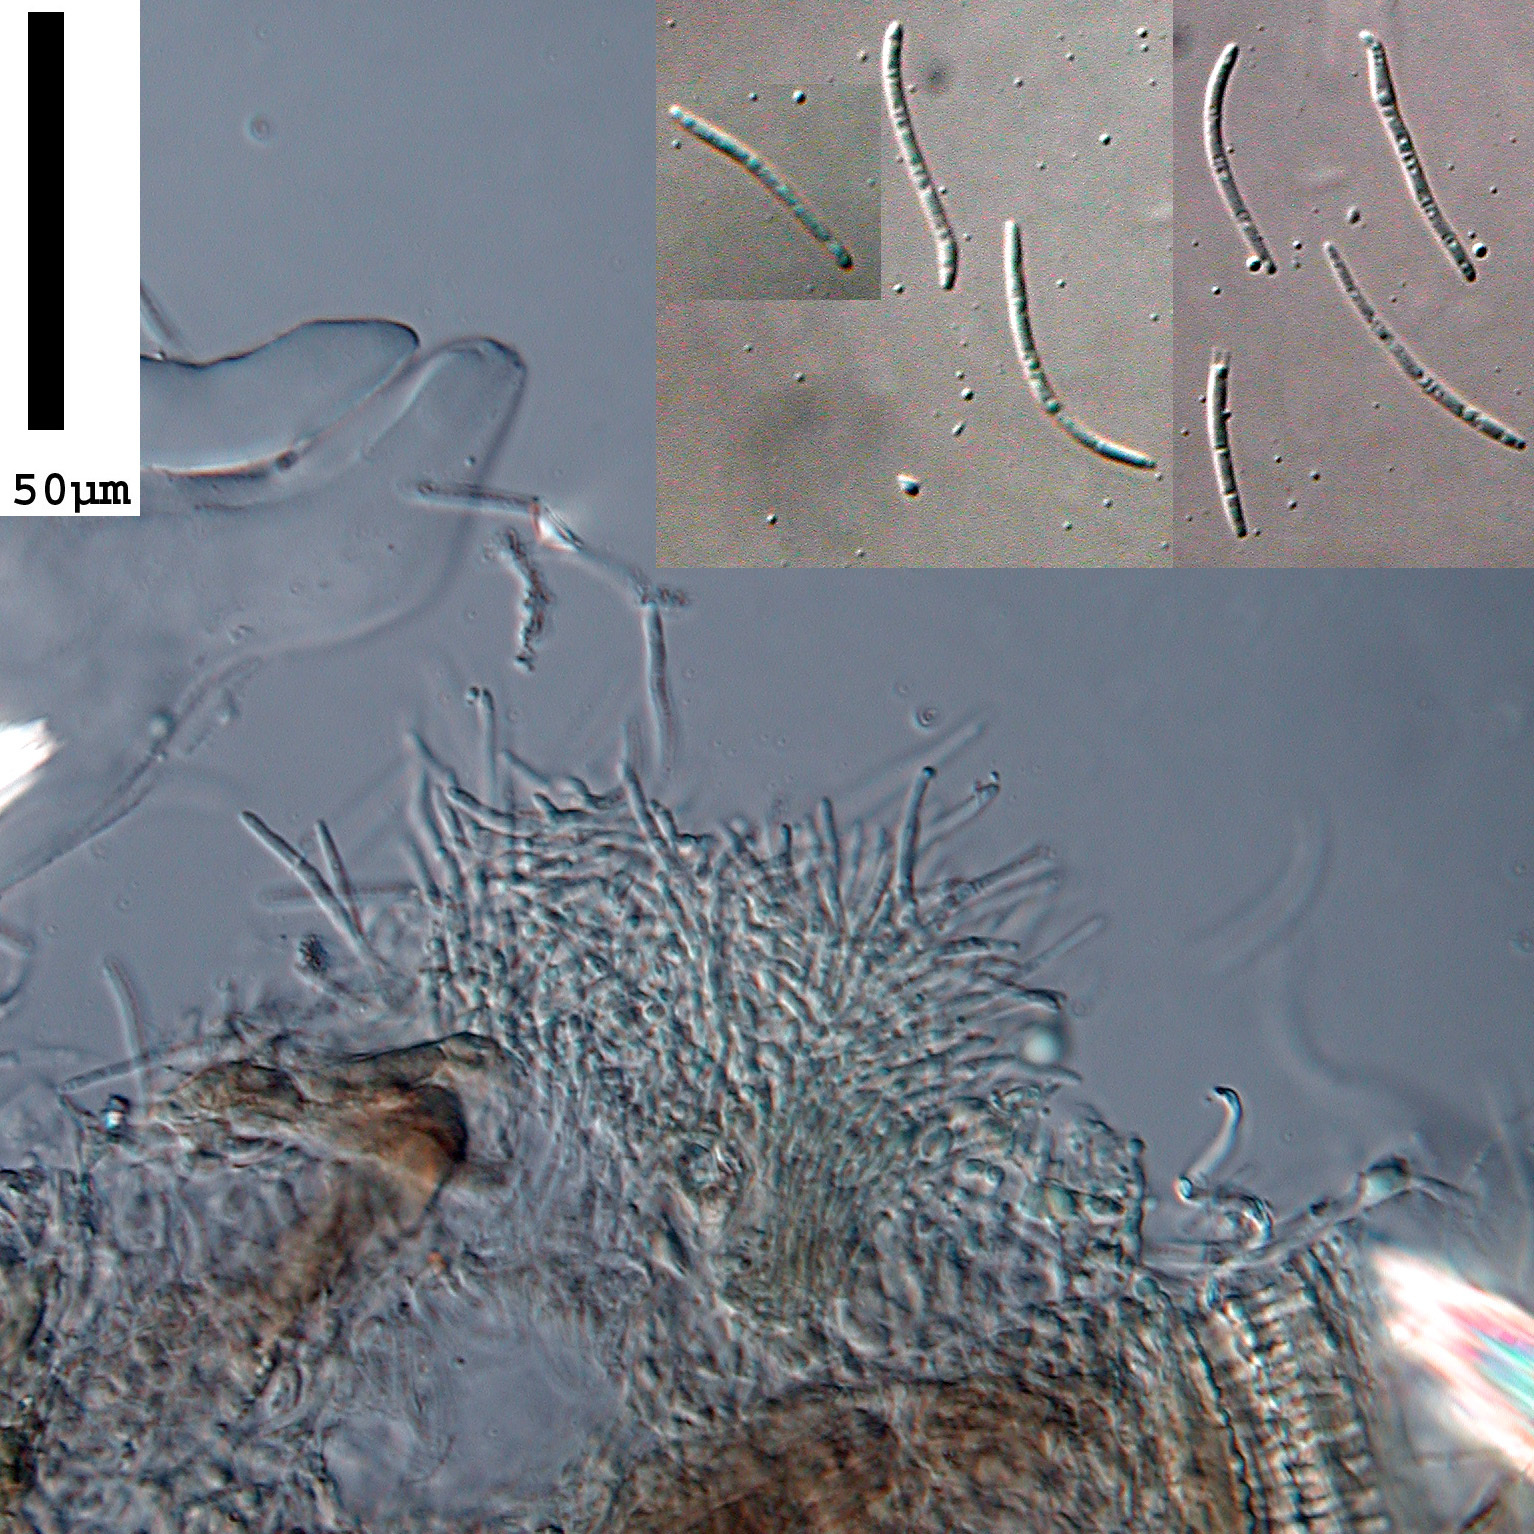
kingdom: Fungi
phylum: Ascomycota
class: Dothideomycetes
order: Mycosphaerellales
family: Mycosphaerellaceae
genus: Septoria
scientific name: Septoria fuchsiicola
